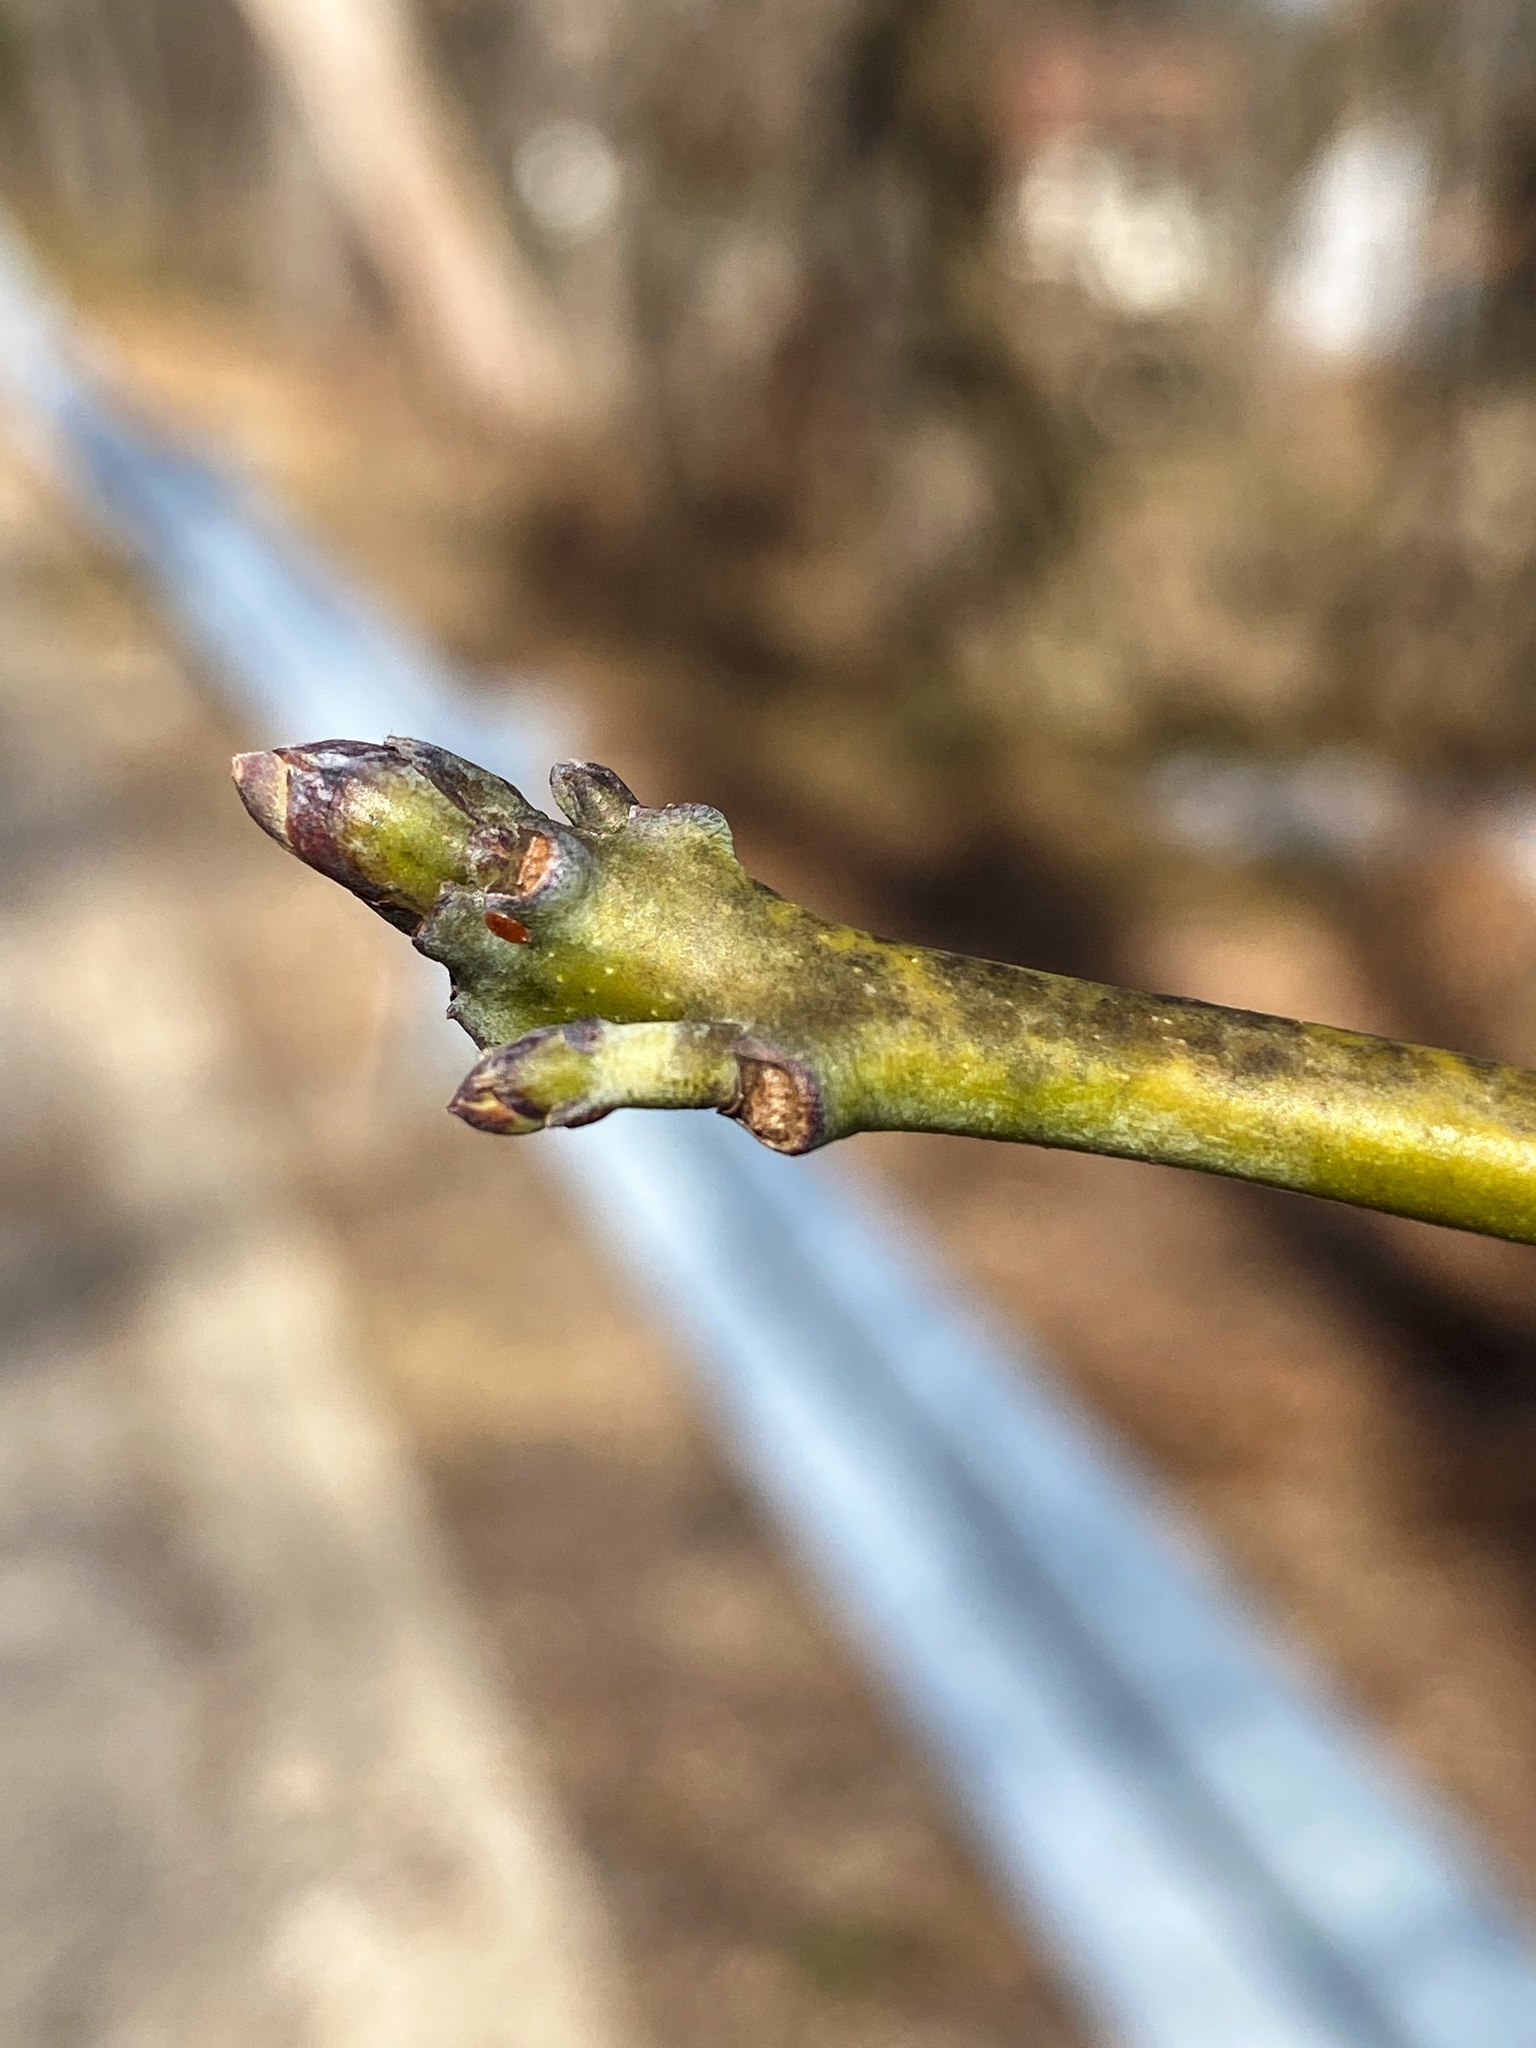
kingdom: Plantae
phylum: Tracheophyta
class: Magnoliopsida
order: Laurales
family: Lauraceae
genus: Sassafras
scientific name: Sassafras albidum
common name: Sassafras
